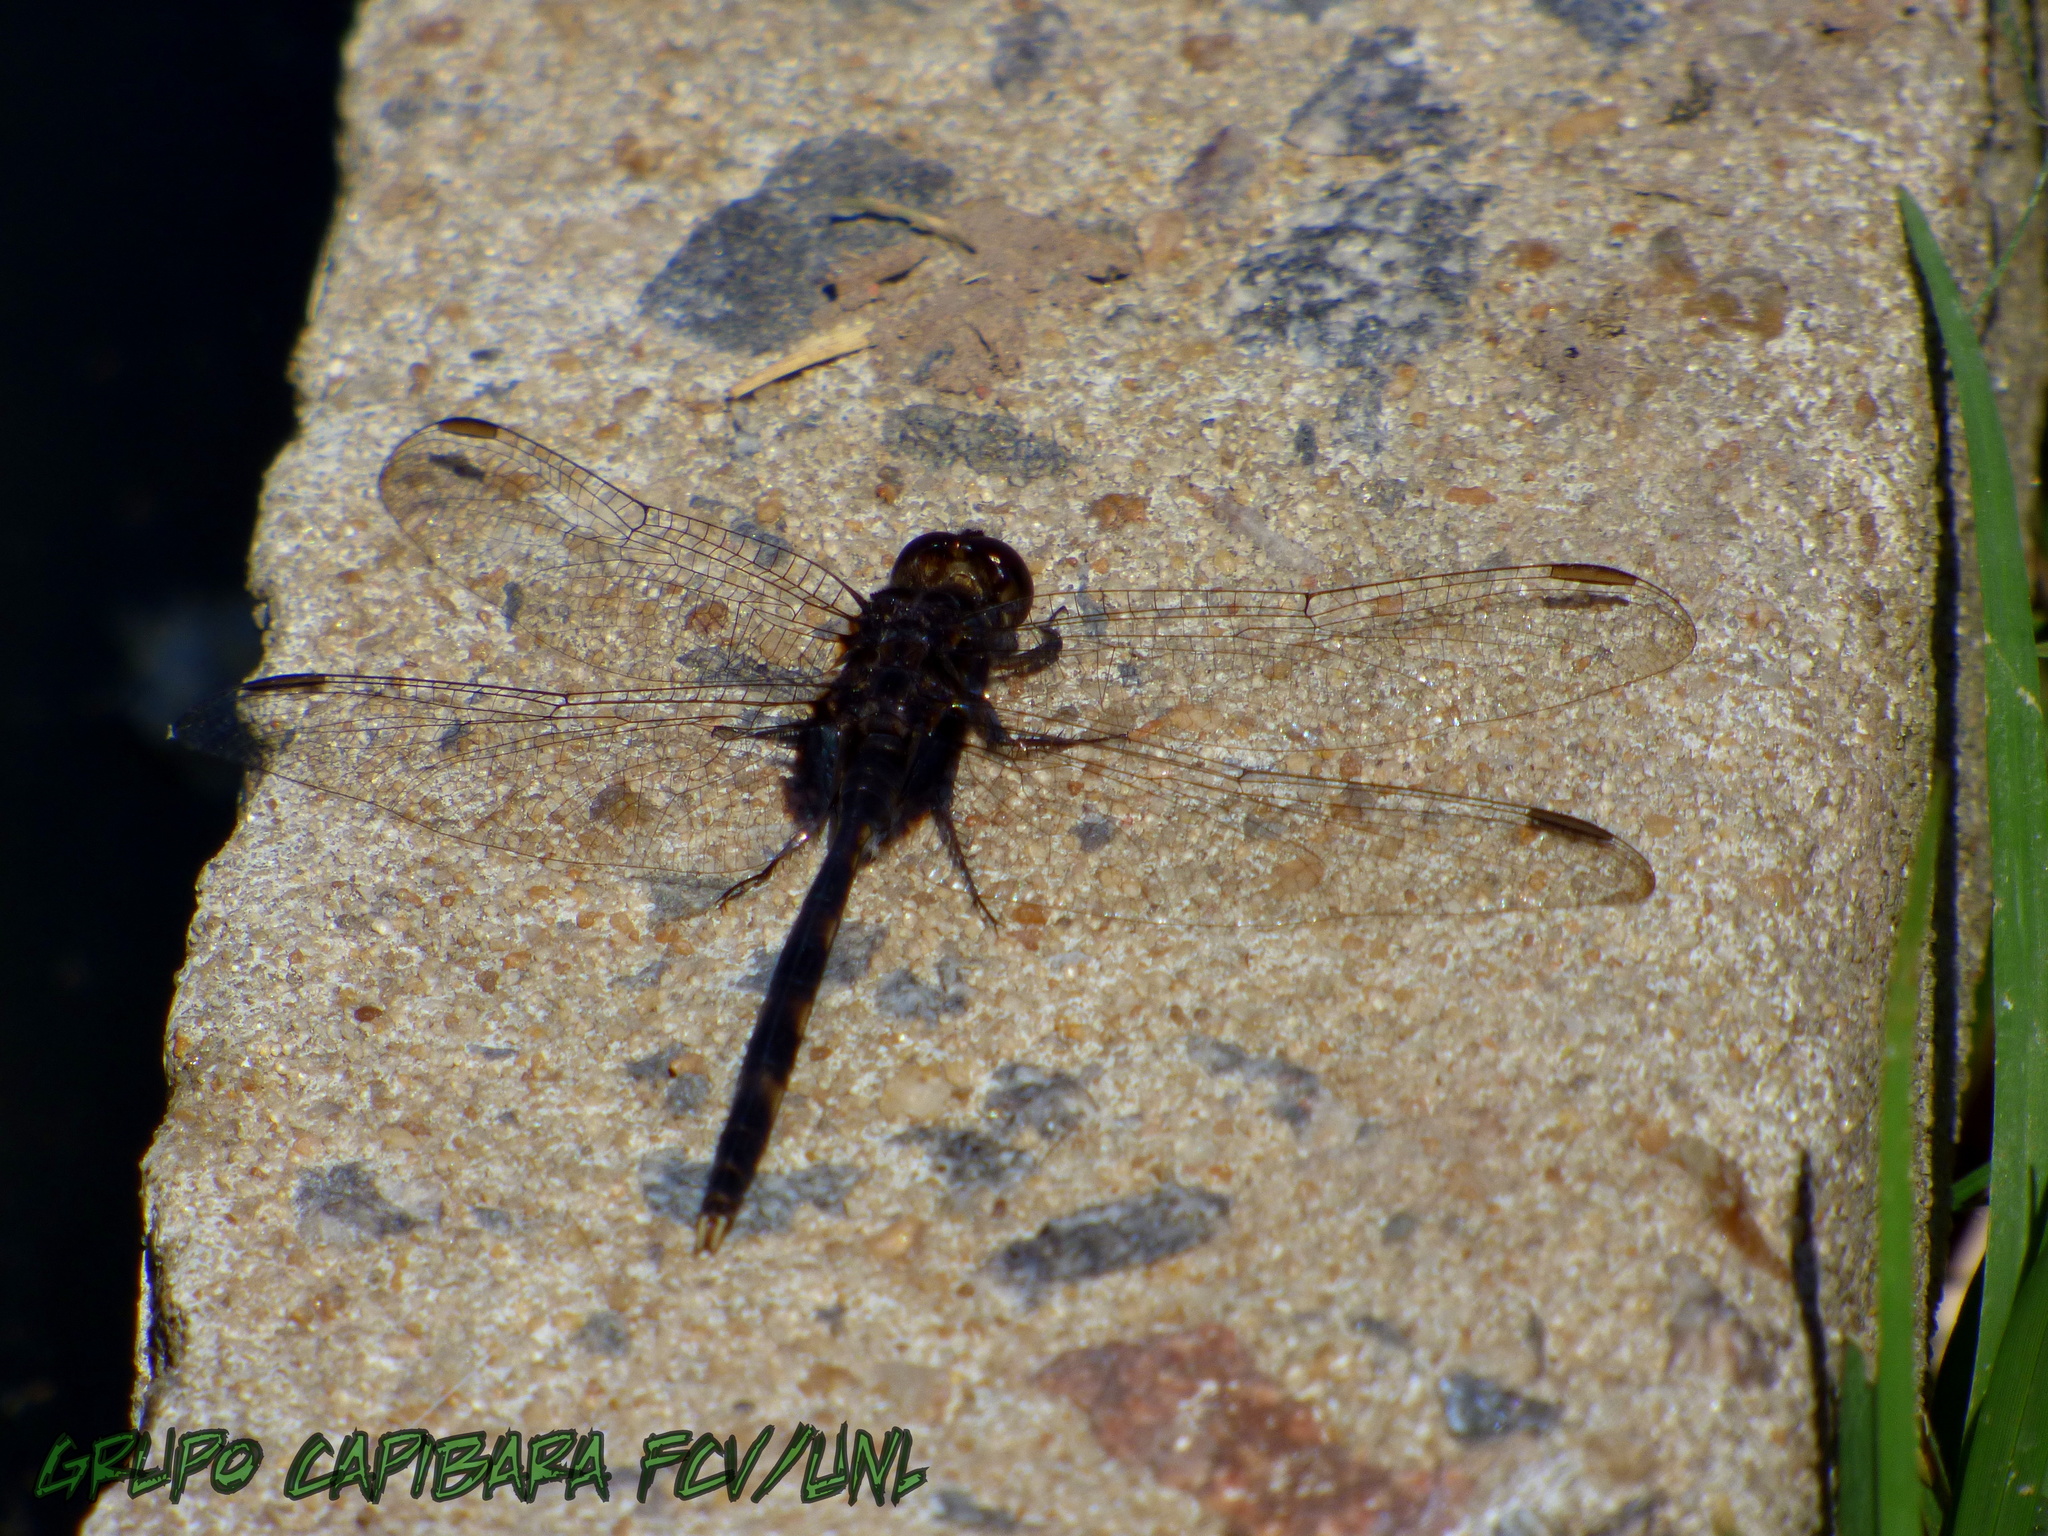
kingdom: Animalia
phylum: Arthropoda
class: Insecta
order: Odonata
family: Libellulidae
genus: Erythemis
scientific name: Erythemis plebeja
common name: Pin-tailed pondhawk
